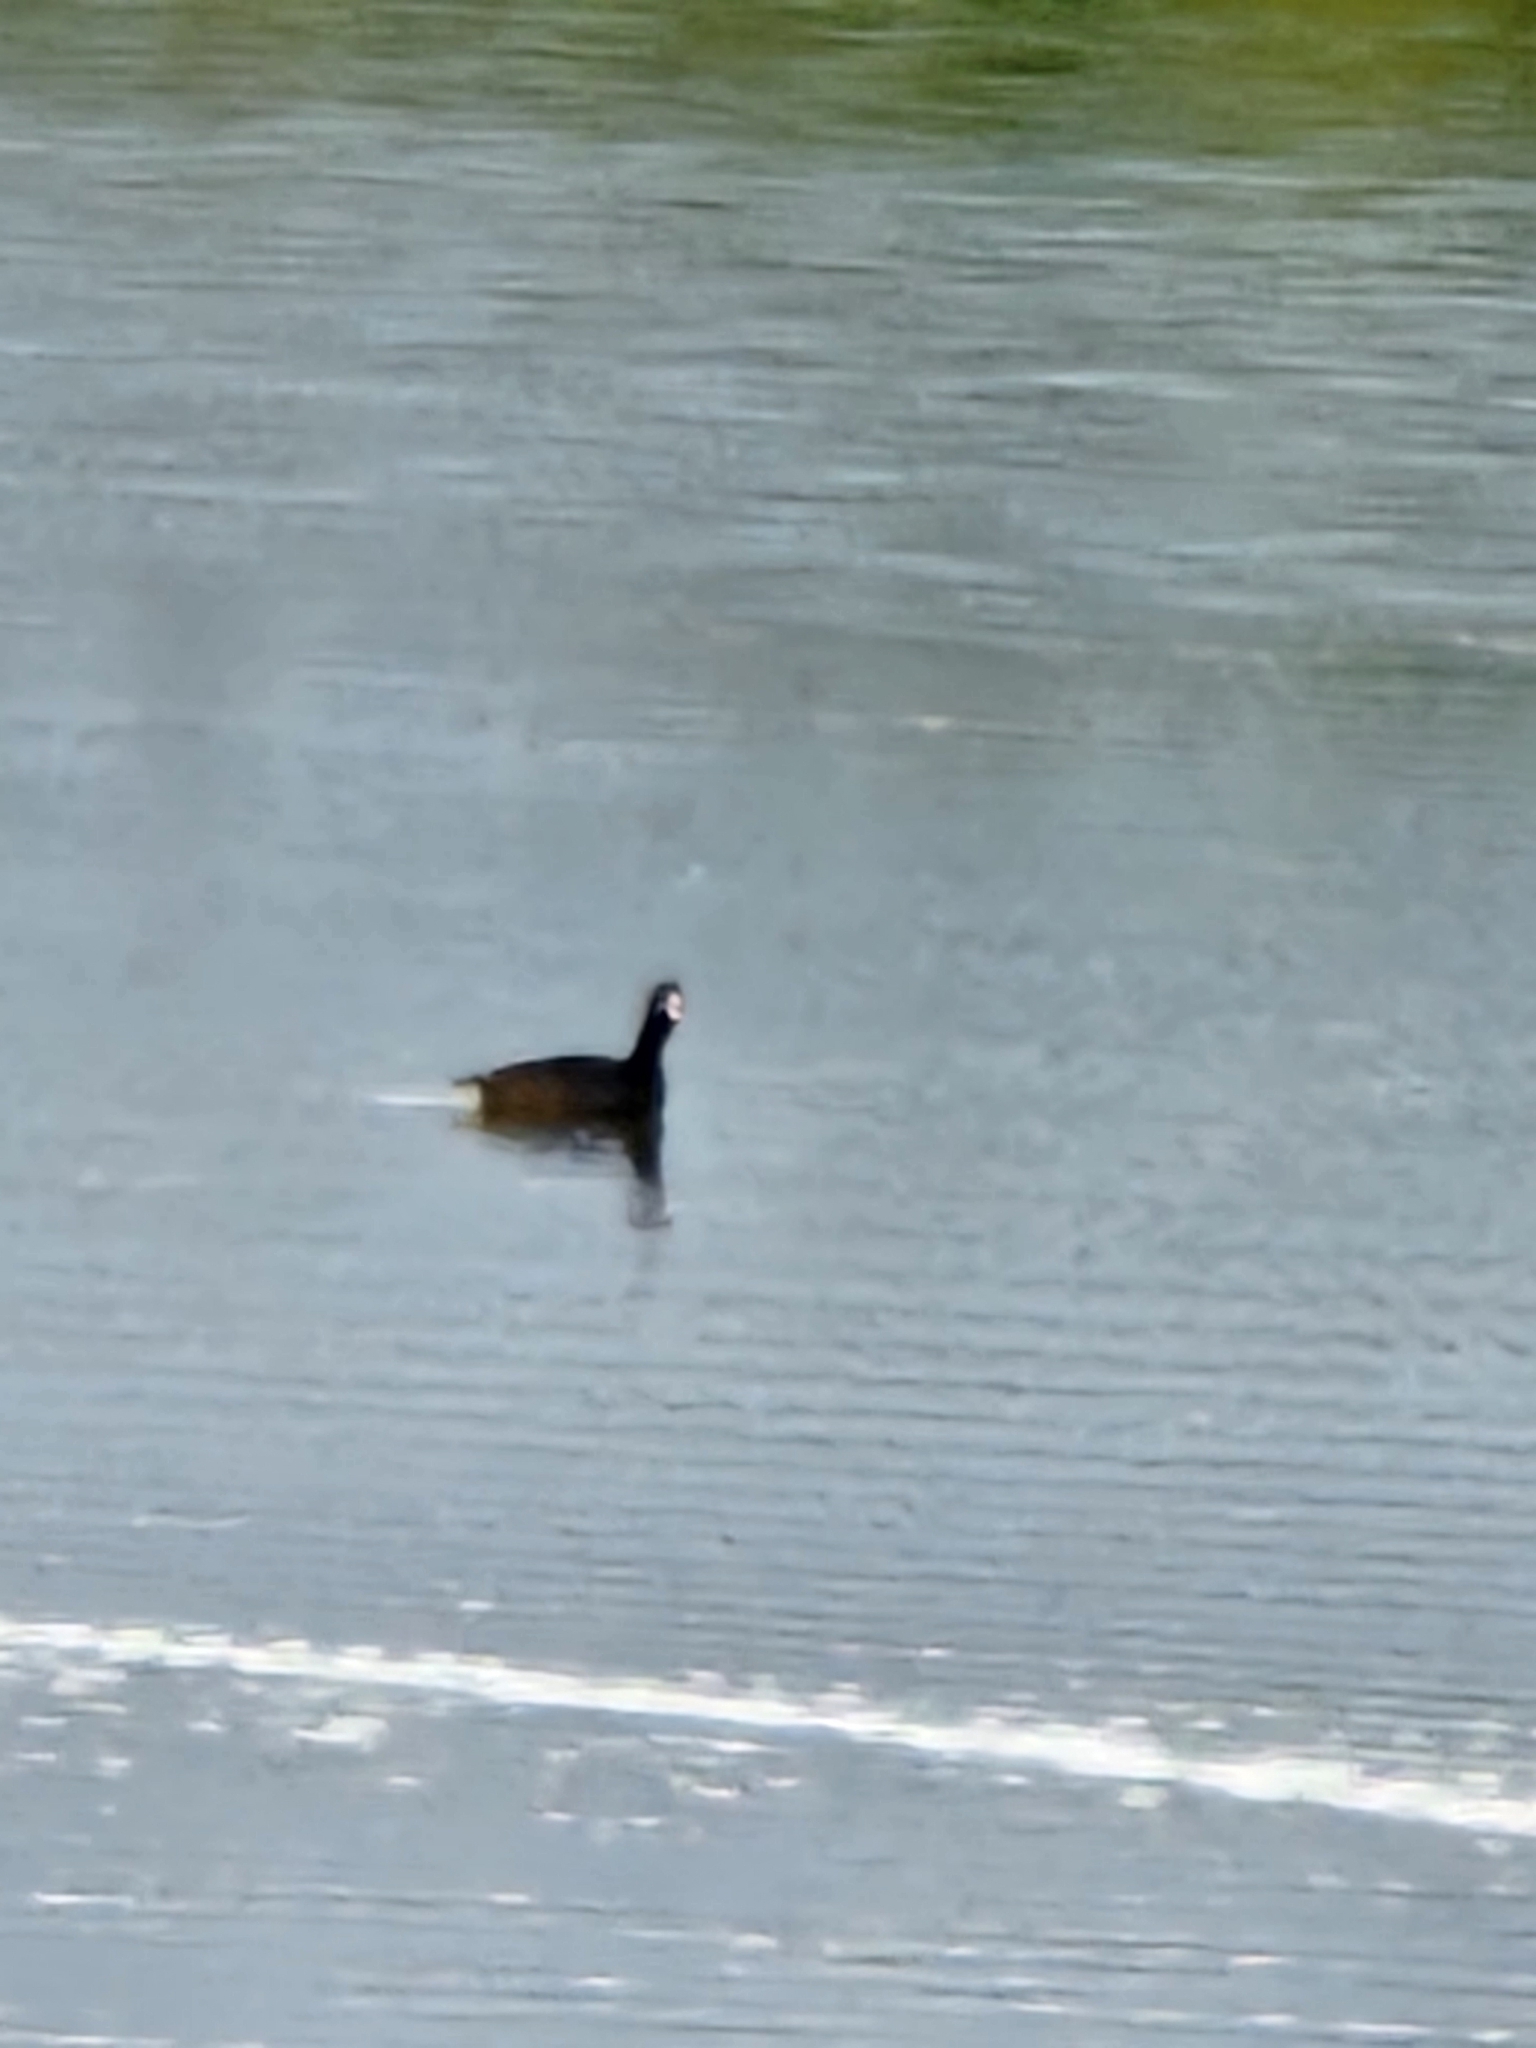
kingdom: Animalia
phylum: Chordata
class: Aves
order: Gruiformes
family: Rallidae
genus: Fulica
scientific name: Fulica americana
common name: American coot
